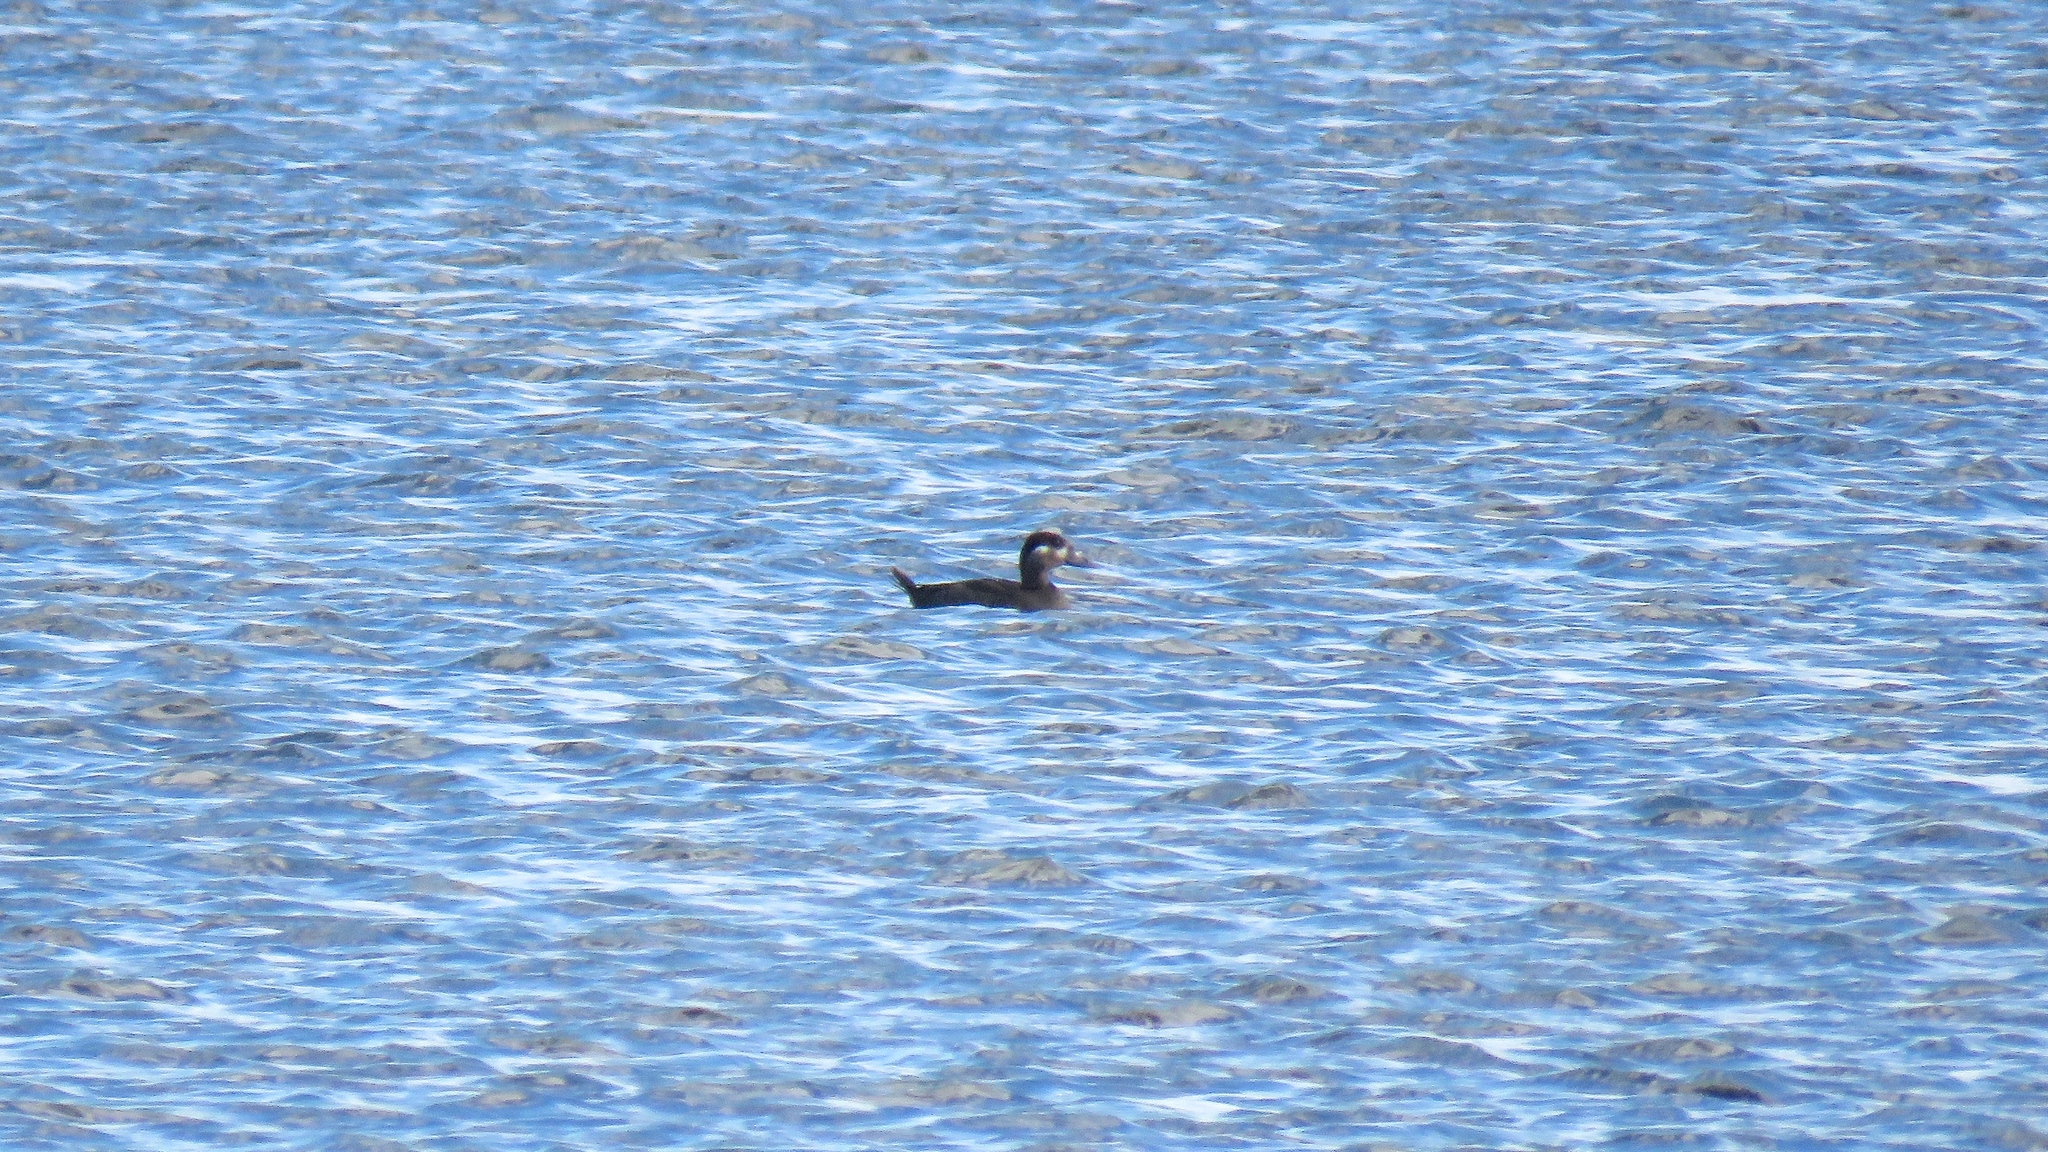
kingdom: Animalia
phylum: Chordata
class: Aves
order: Anseriformes
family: Anatidae
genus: Melanitta
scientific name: Melanitta perspicillata
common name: Surf scoter
